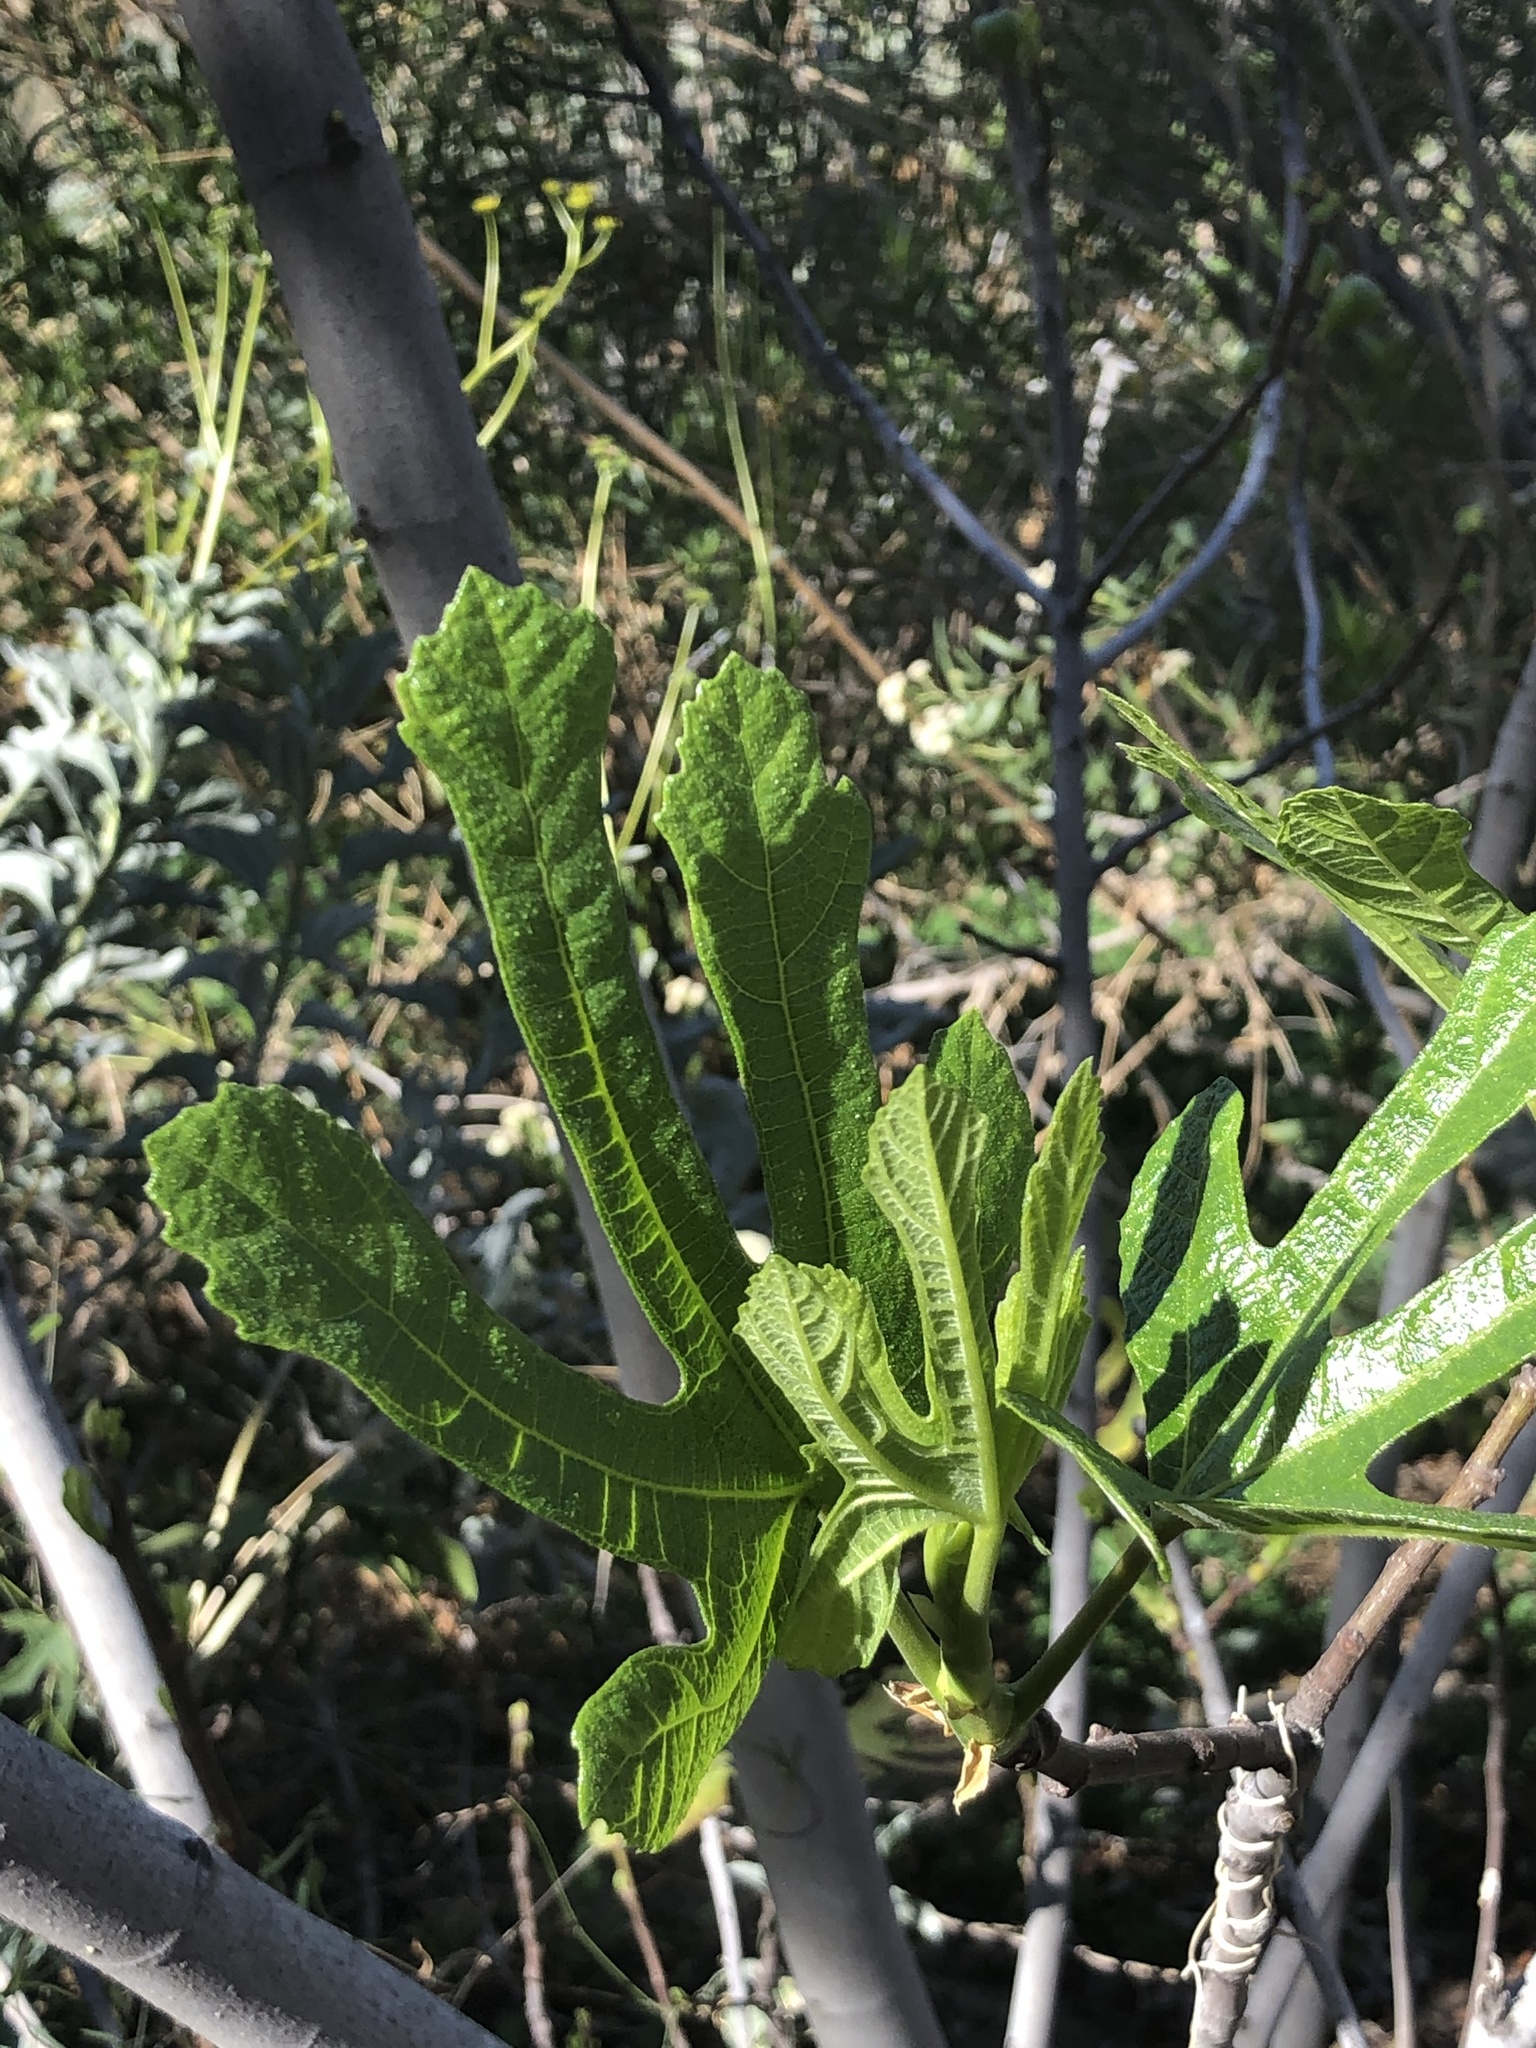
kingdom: Plantae
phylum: Tracheophyta
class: Magnoliopsida
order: Rosales
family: Moraceae
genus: Ficus
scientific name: Ficus carica
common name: Fig
